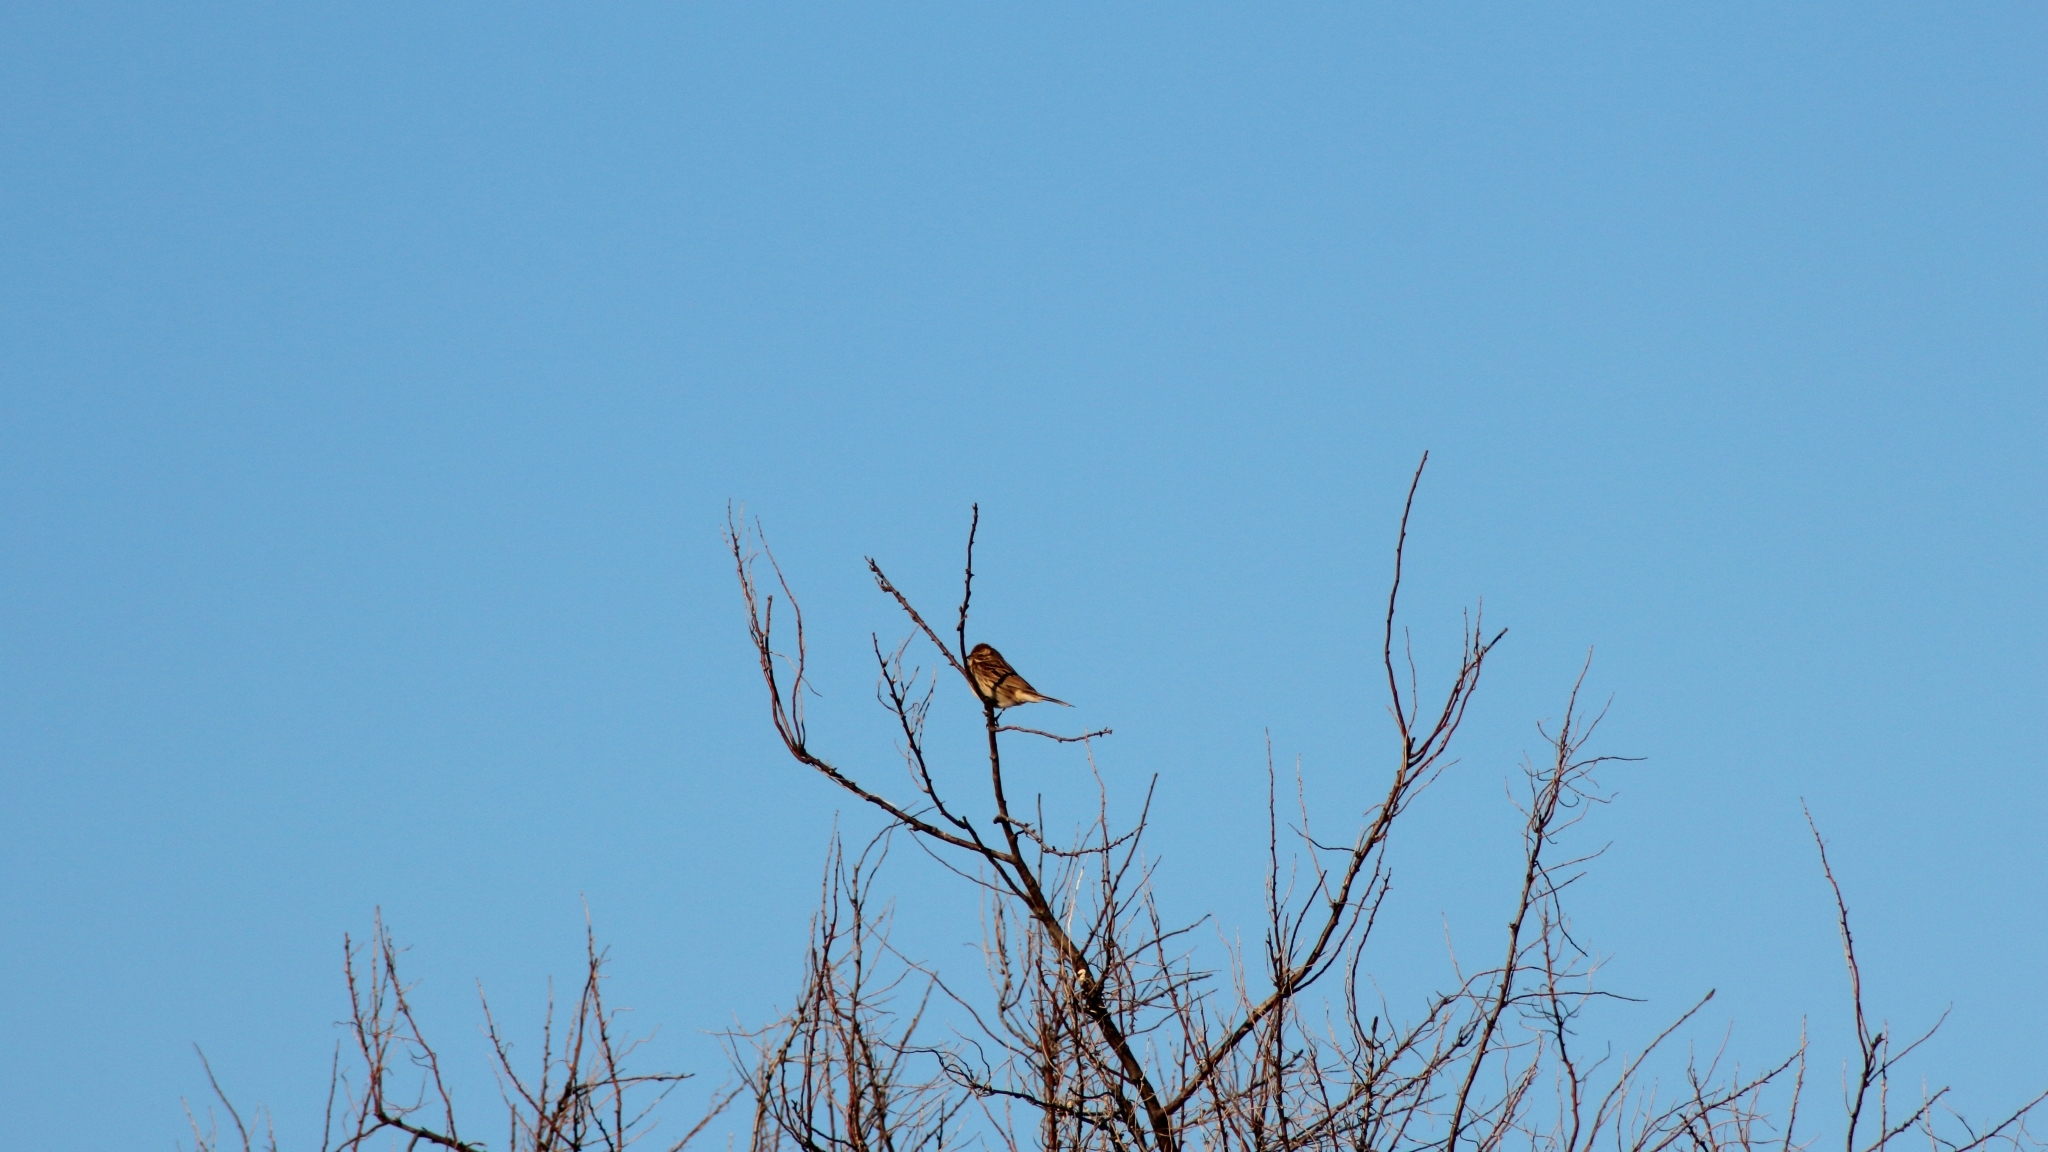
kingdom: Animalia
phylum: Chordata
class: Aves
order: Passeriformes
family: Emberizidae
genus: Emberiza
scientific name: Emberiza schoeniclus
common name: Reed bunting
